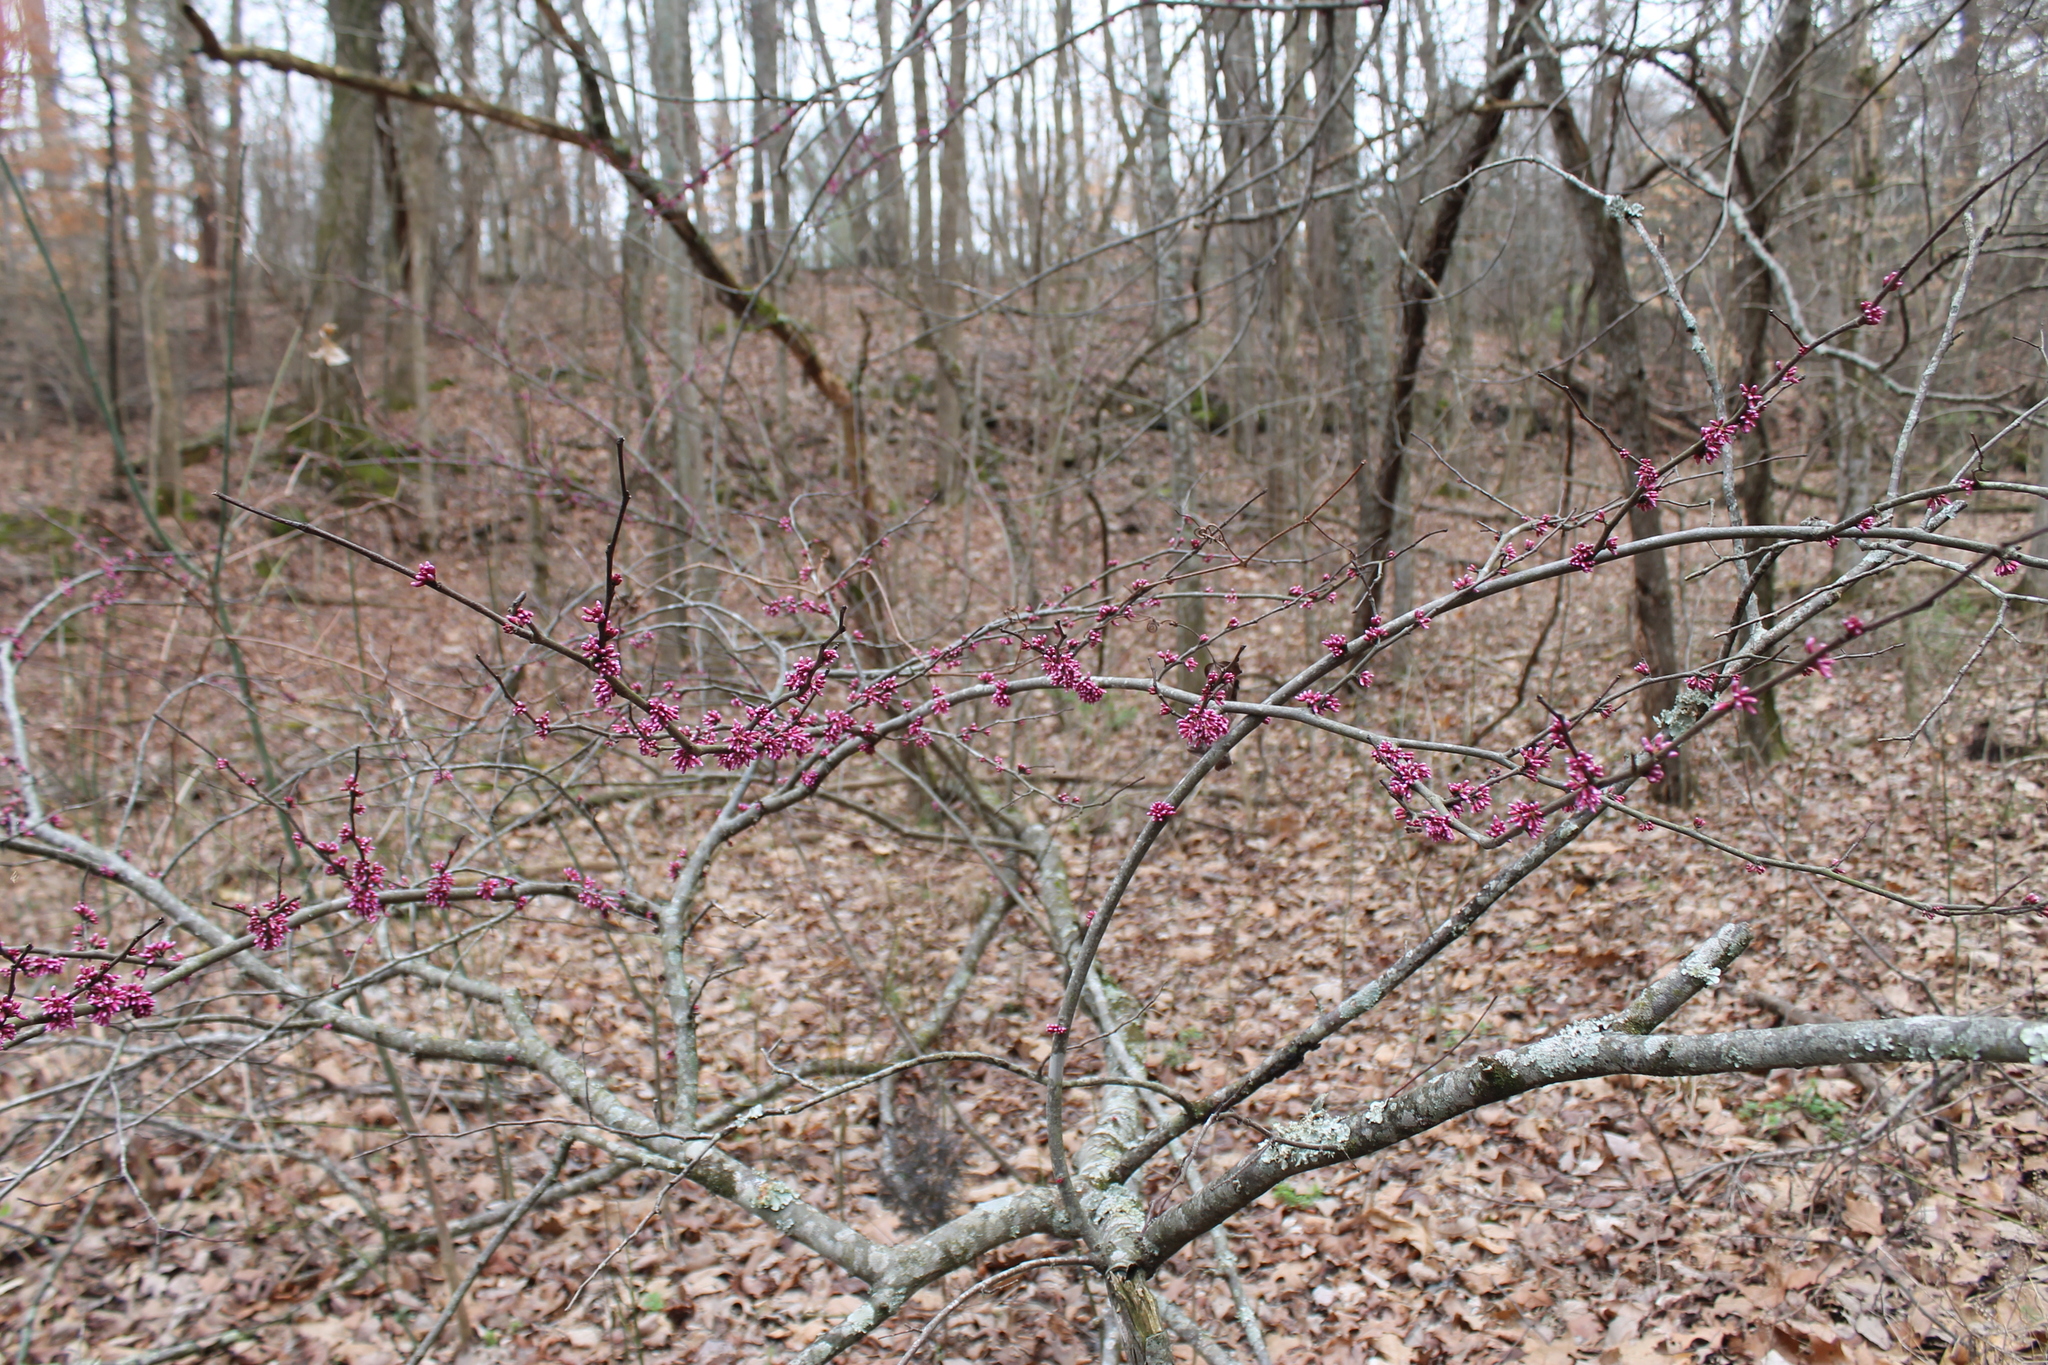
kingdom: Plantae
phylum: Tracheophyta
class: Magnoliopsida
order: Fabales
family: Fabaceae
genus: Cercis
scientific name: Cercis canadensis
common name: Eastern redbud
